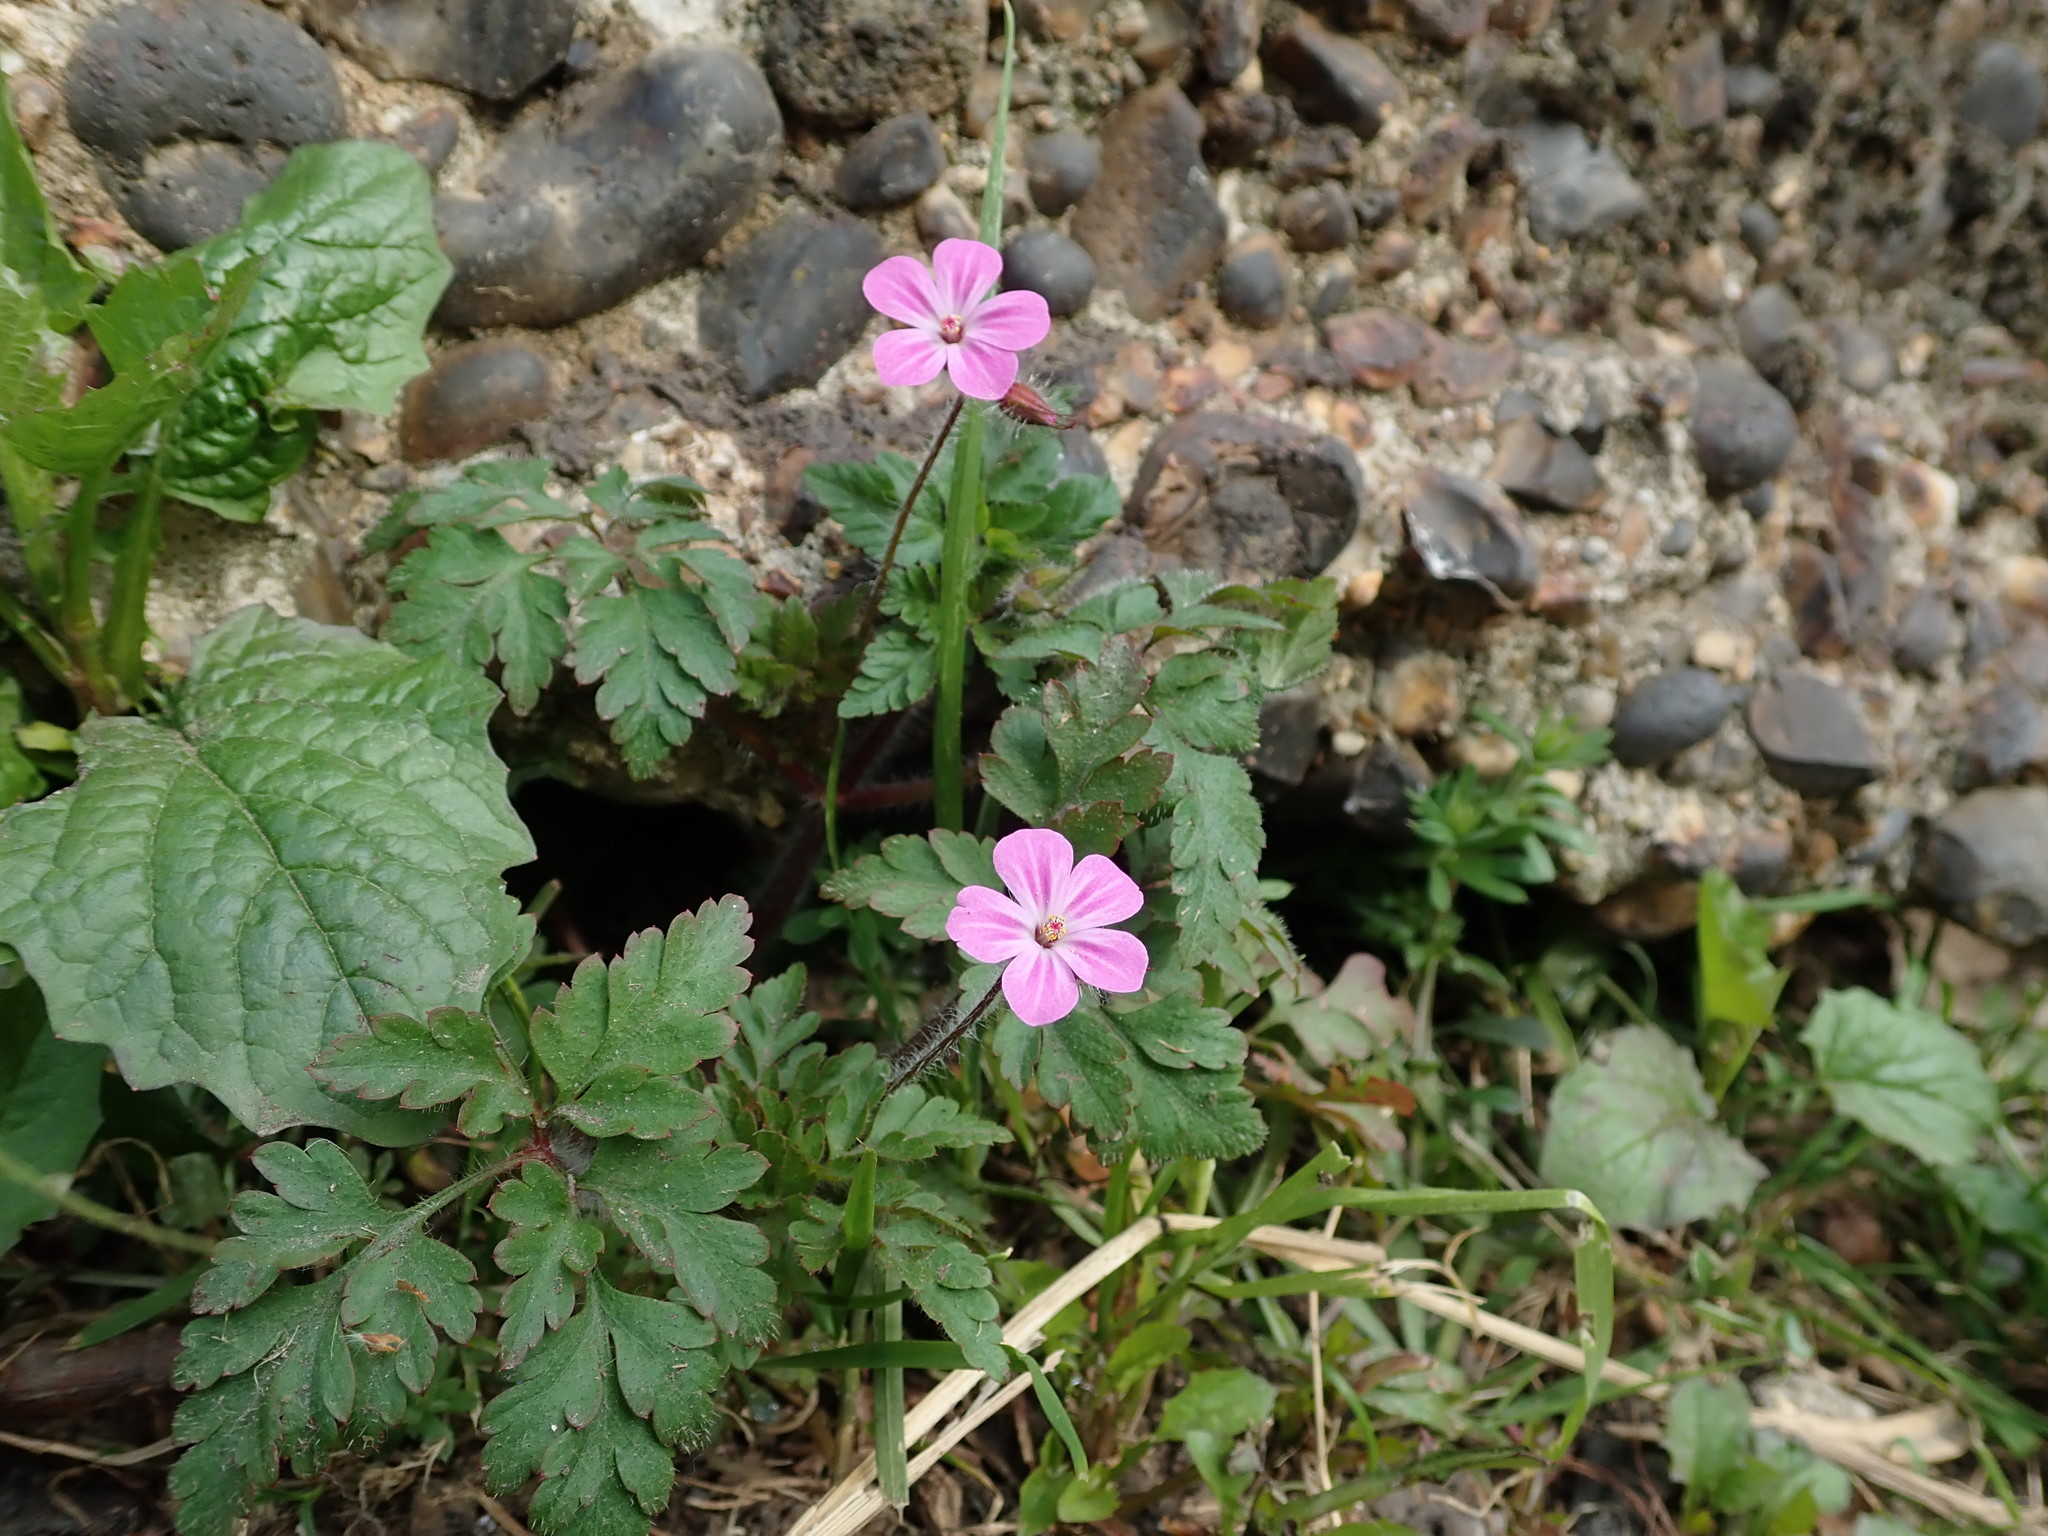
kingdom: Plantae
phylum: Tracheophyta
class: Magnoliopsida
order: Geraniales
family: Geraniaceae
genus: Geranium
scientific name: Geranium robertianum
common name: Herb-robert
